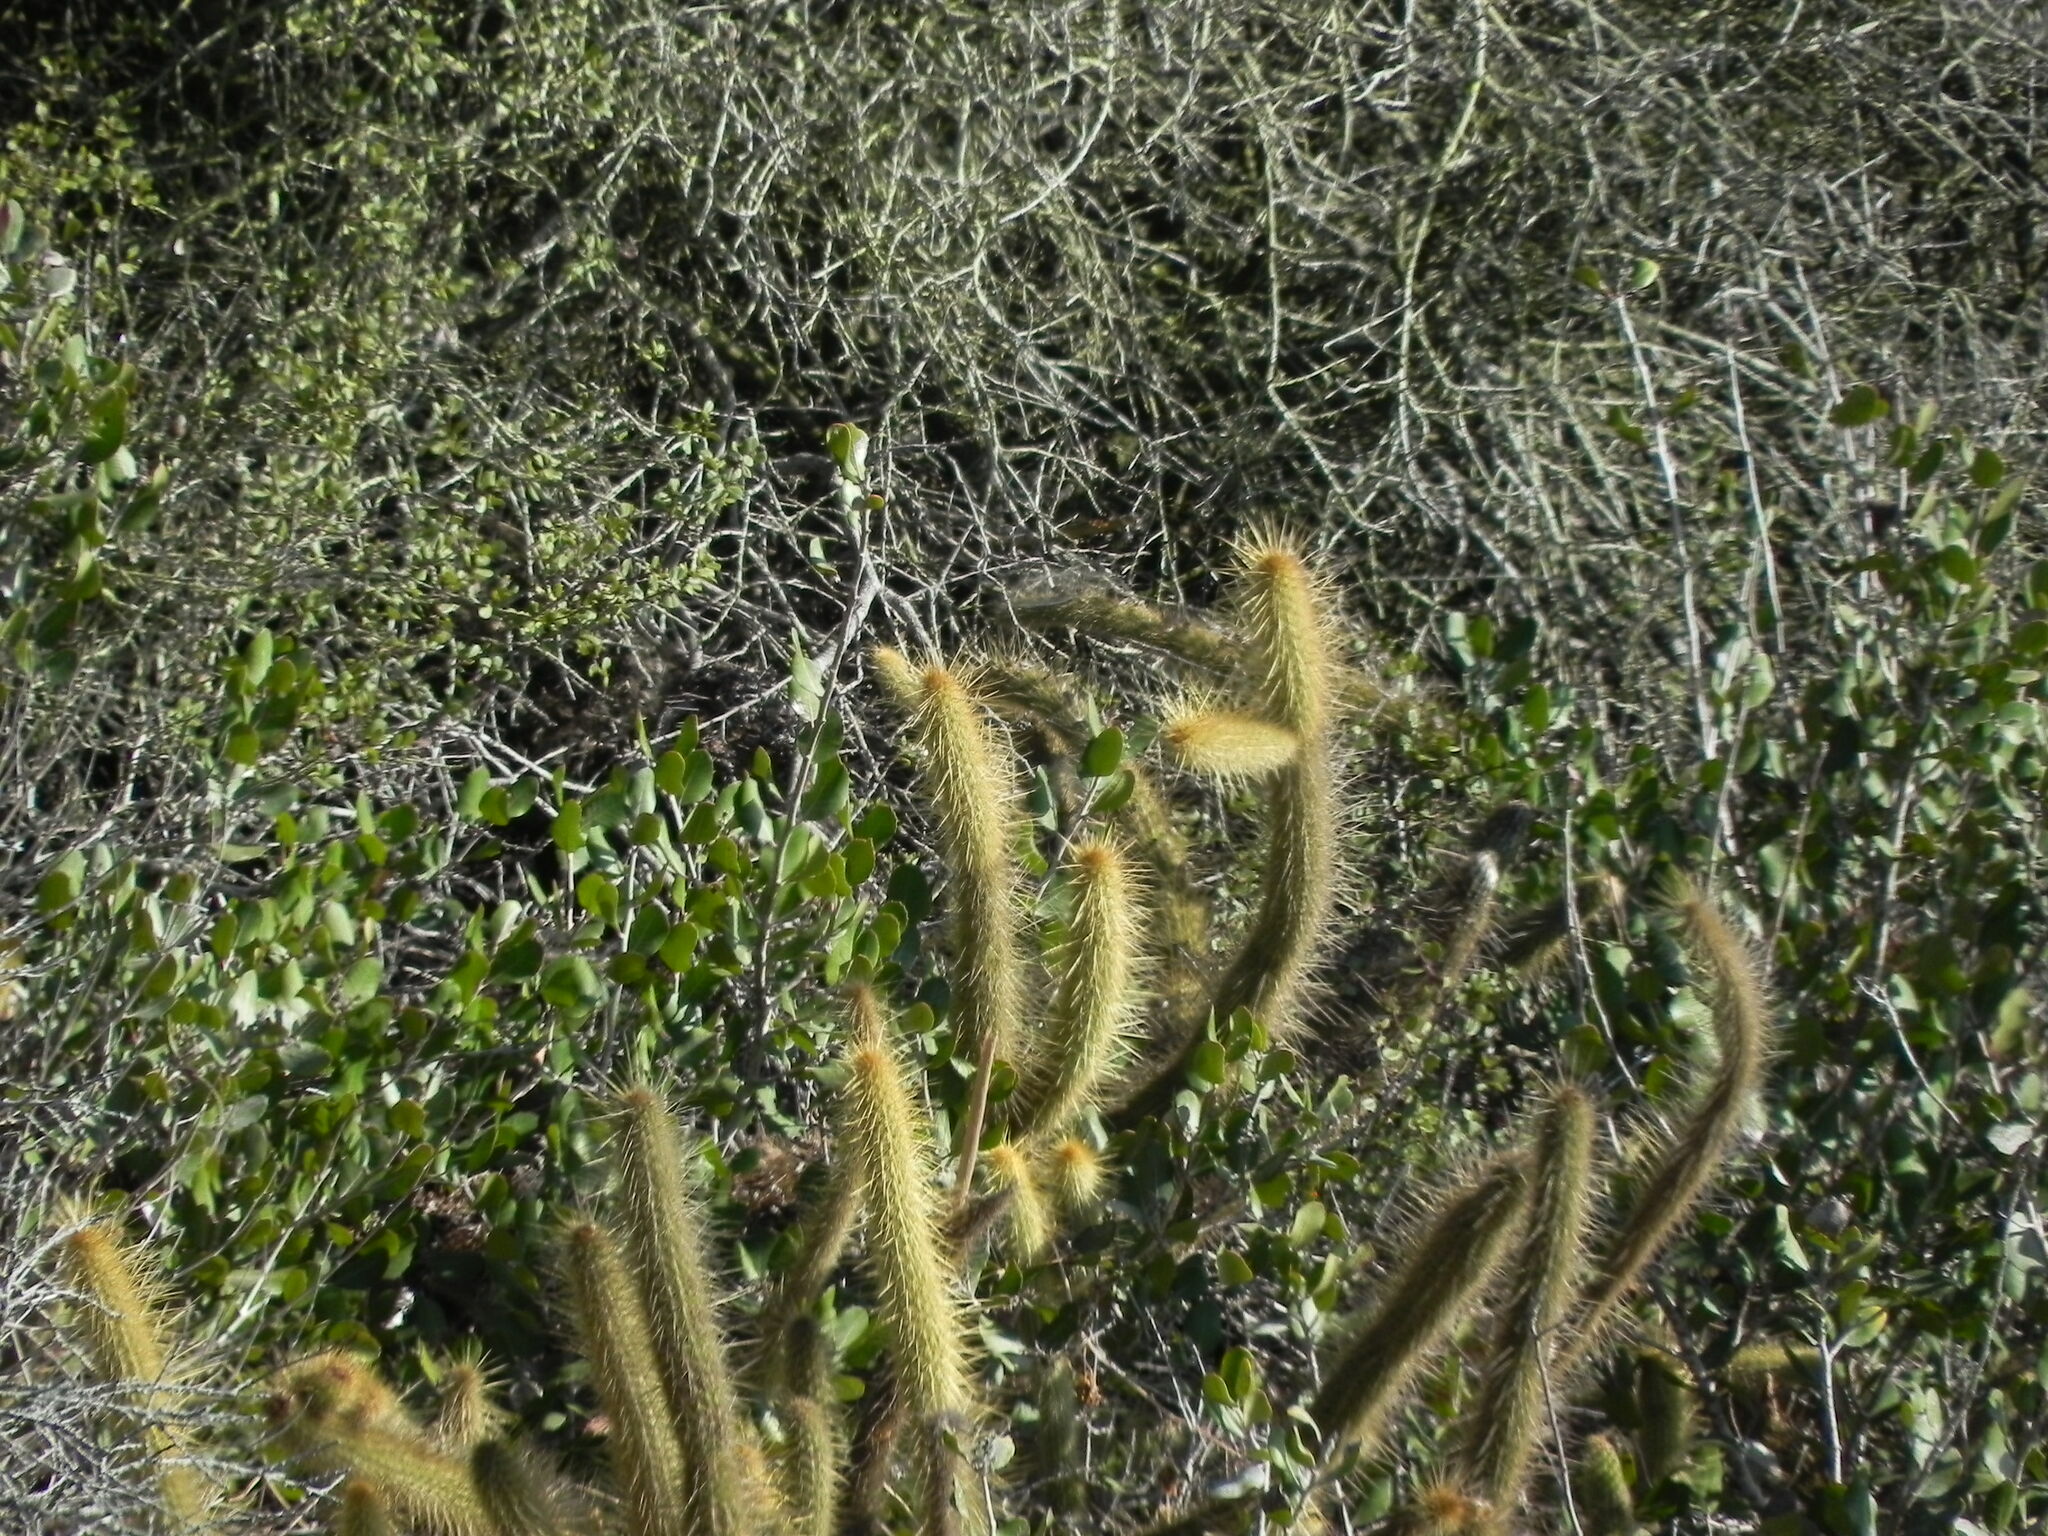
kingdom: Plantae
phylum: Tracheophyta
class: Magnoliopsida
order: Caryophyllales
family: Cactaceae
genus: Bergerocactus
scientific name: Bergerocactus emoryi
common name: Golden snakecactus
